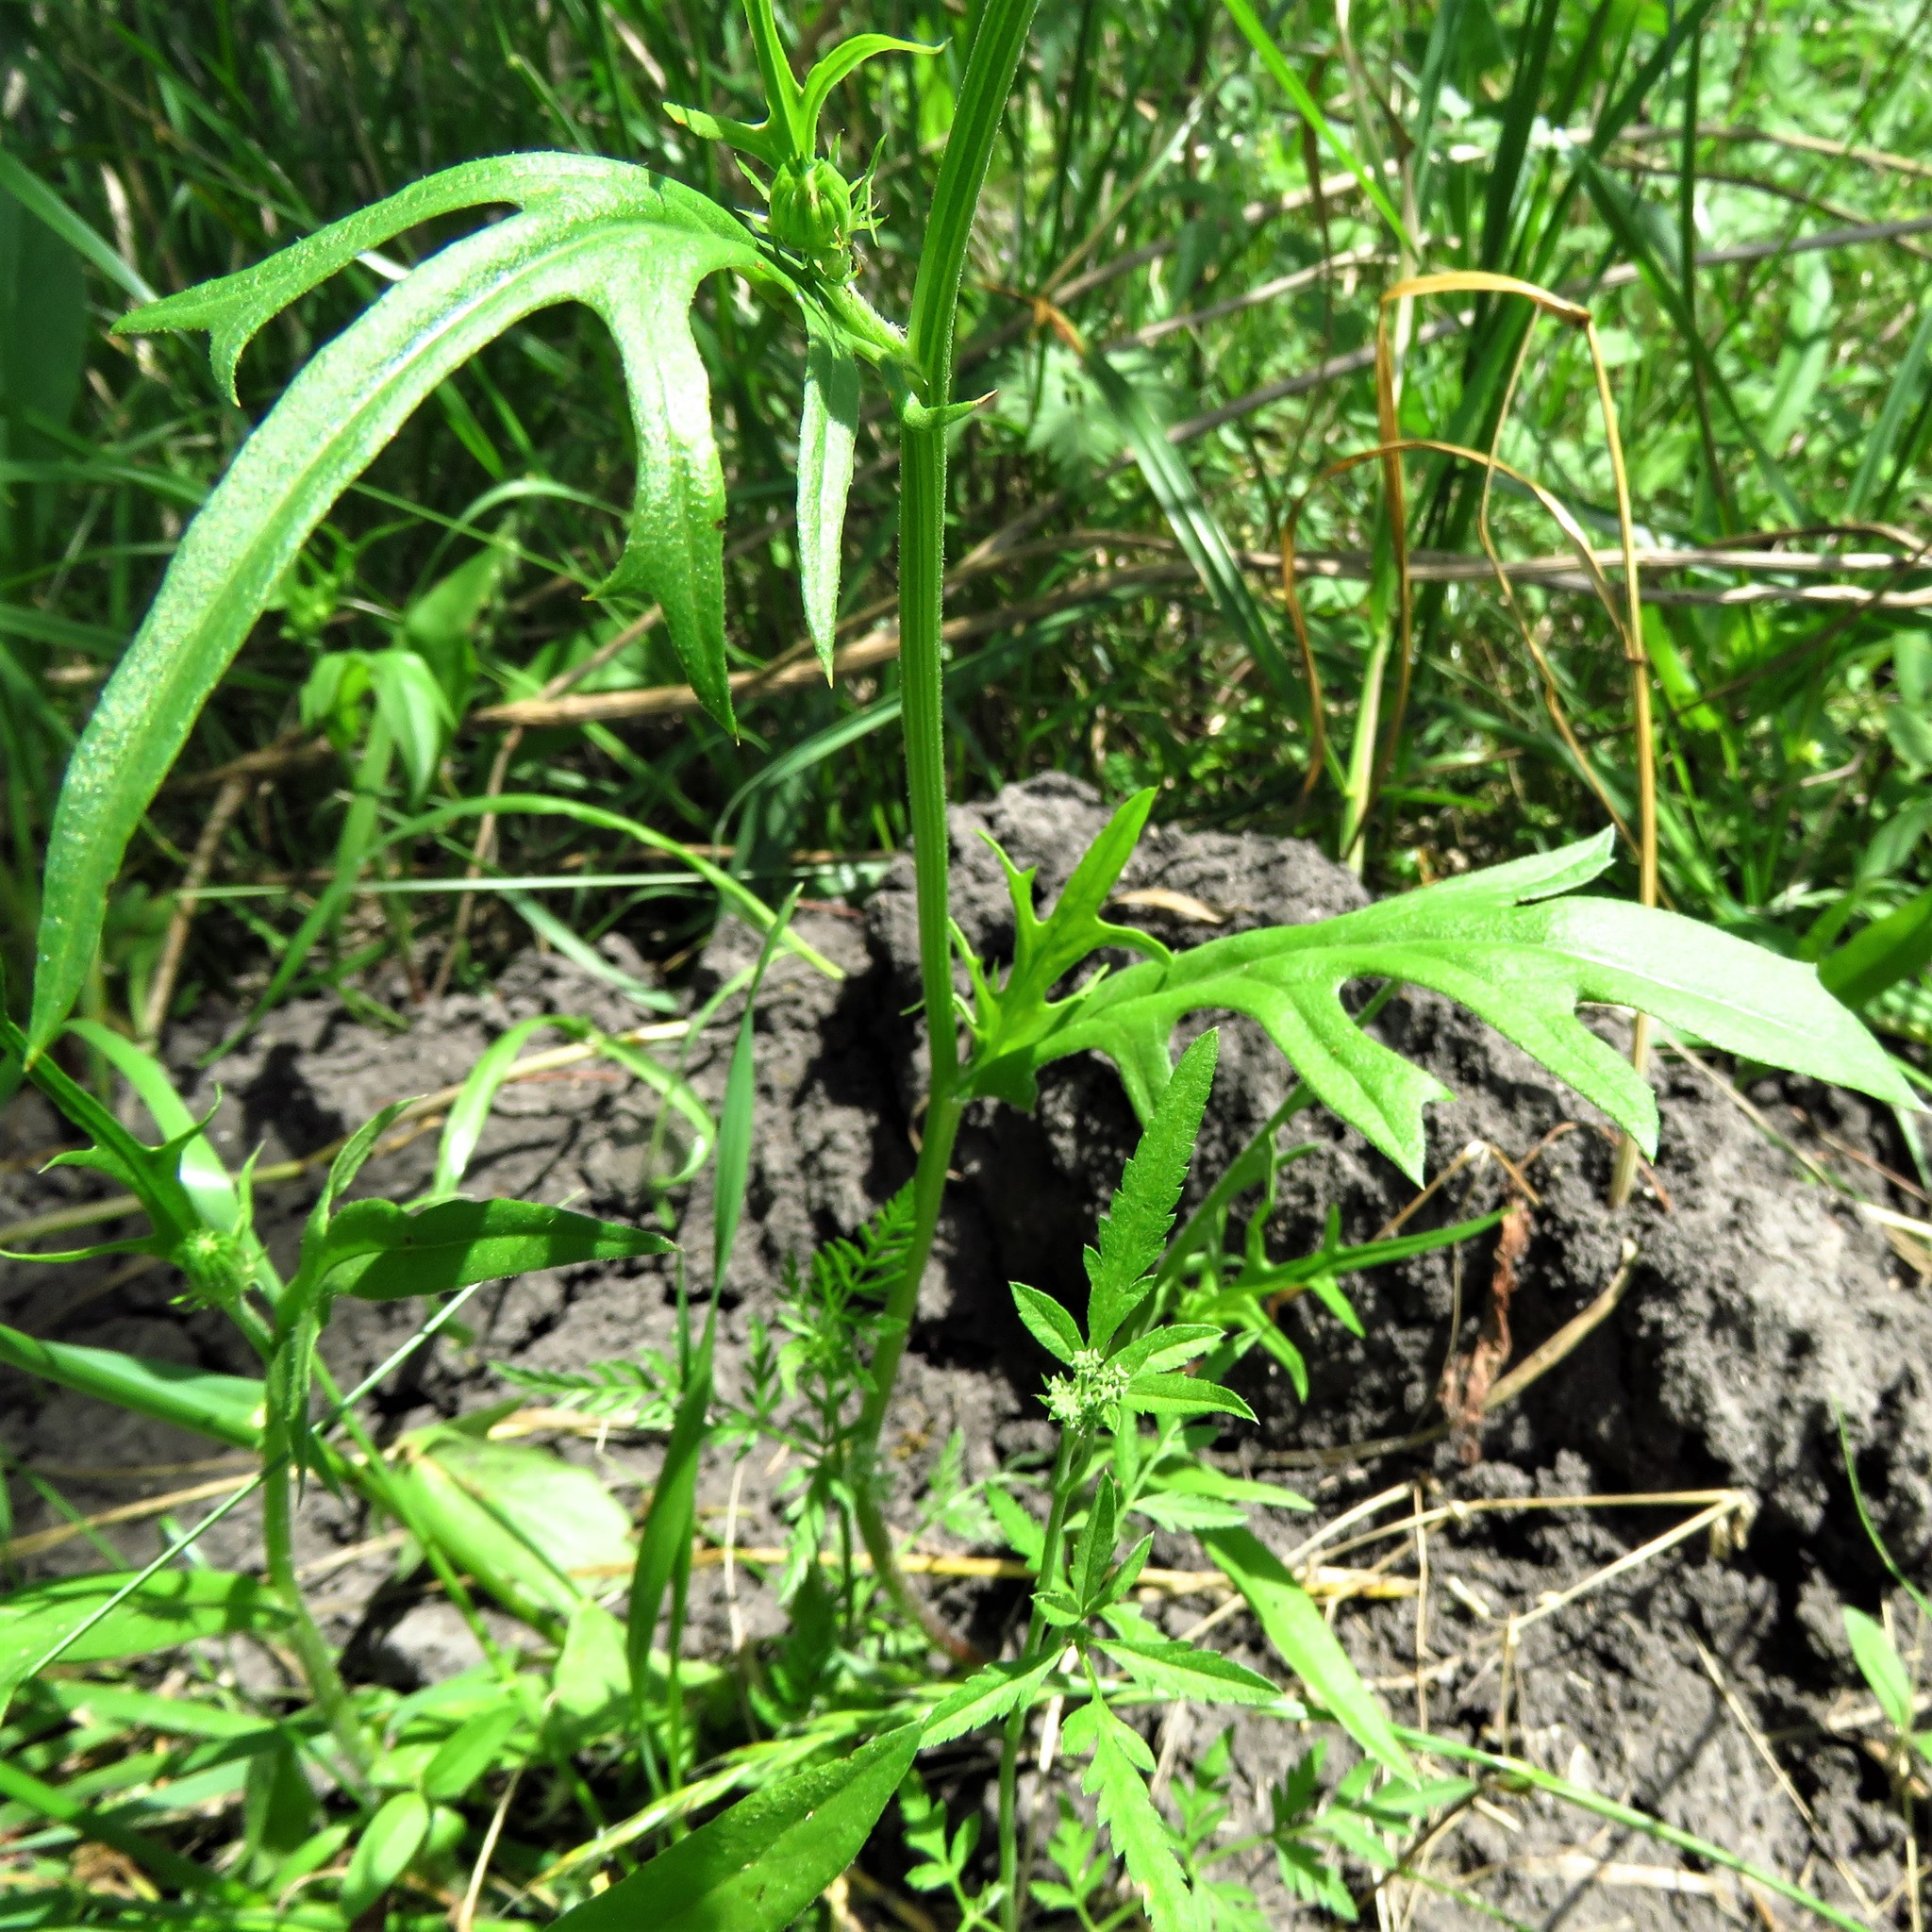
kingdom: Plantae
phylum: Tracheophyta
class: Magnoliopsida
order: Asterales
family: Asteraceae
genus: Pyrrhopappus
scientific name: Pyrrhopappus pauciflorus
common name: Texas false dandelion
